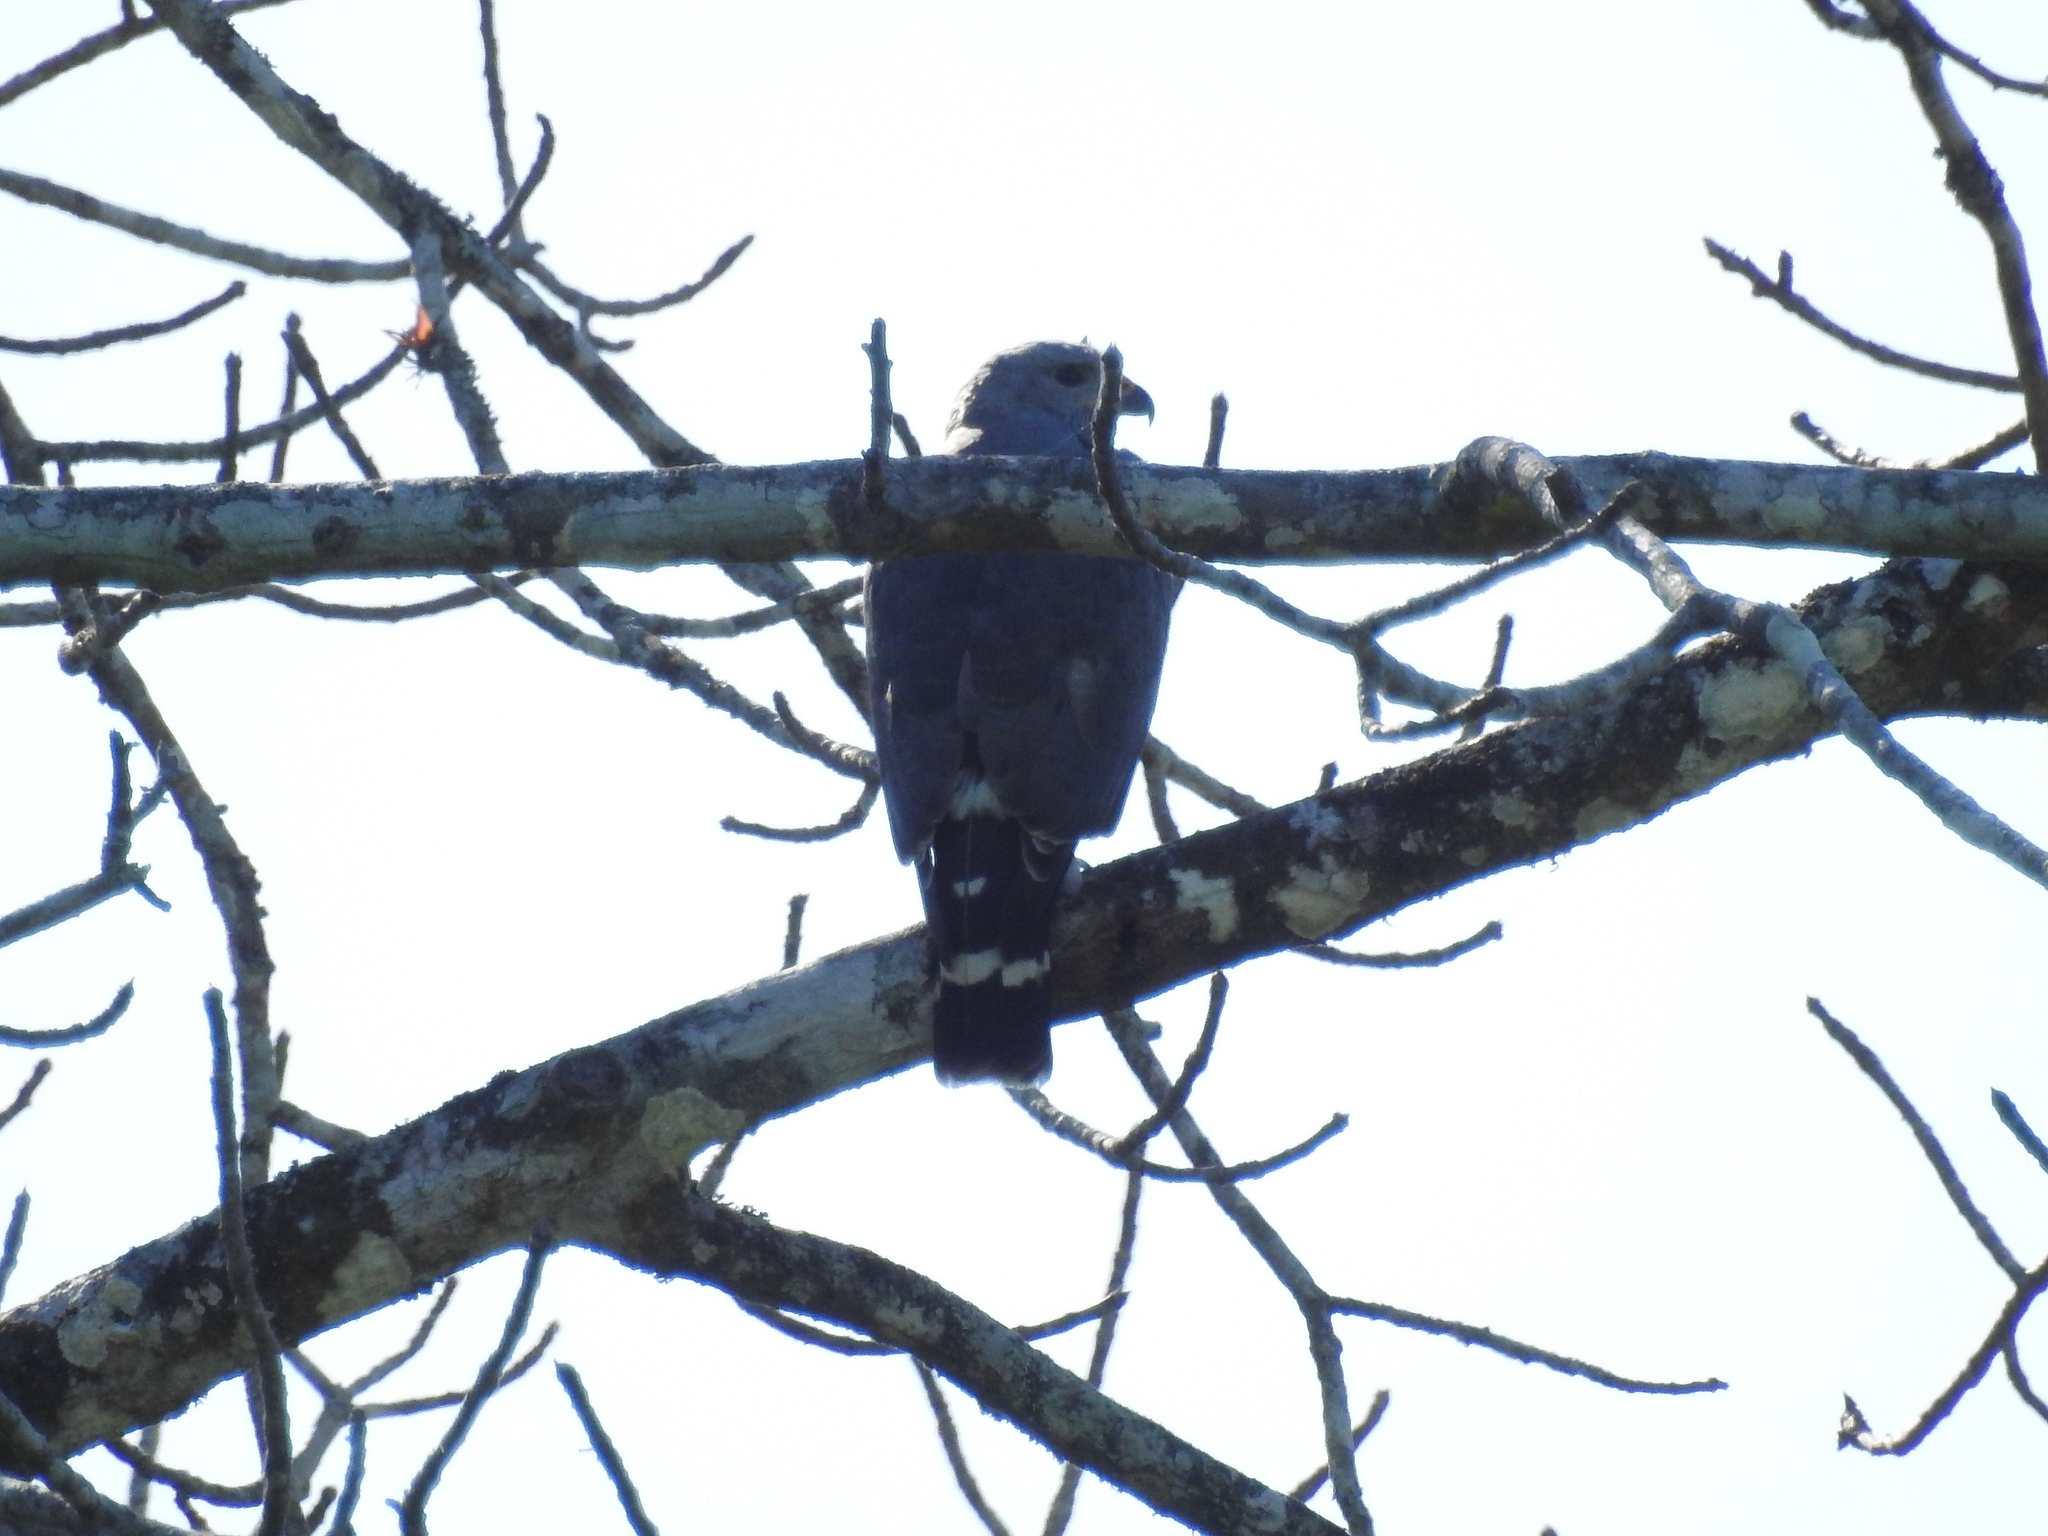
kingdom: Animalia
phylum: Chordata
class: Aves
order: Accipitriformes
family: Accipitridae
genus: Buteo
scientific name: Buteo nitidus
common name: Grey-lined hawk
